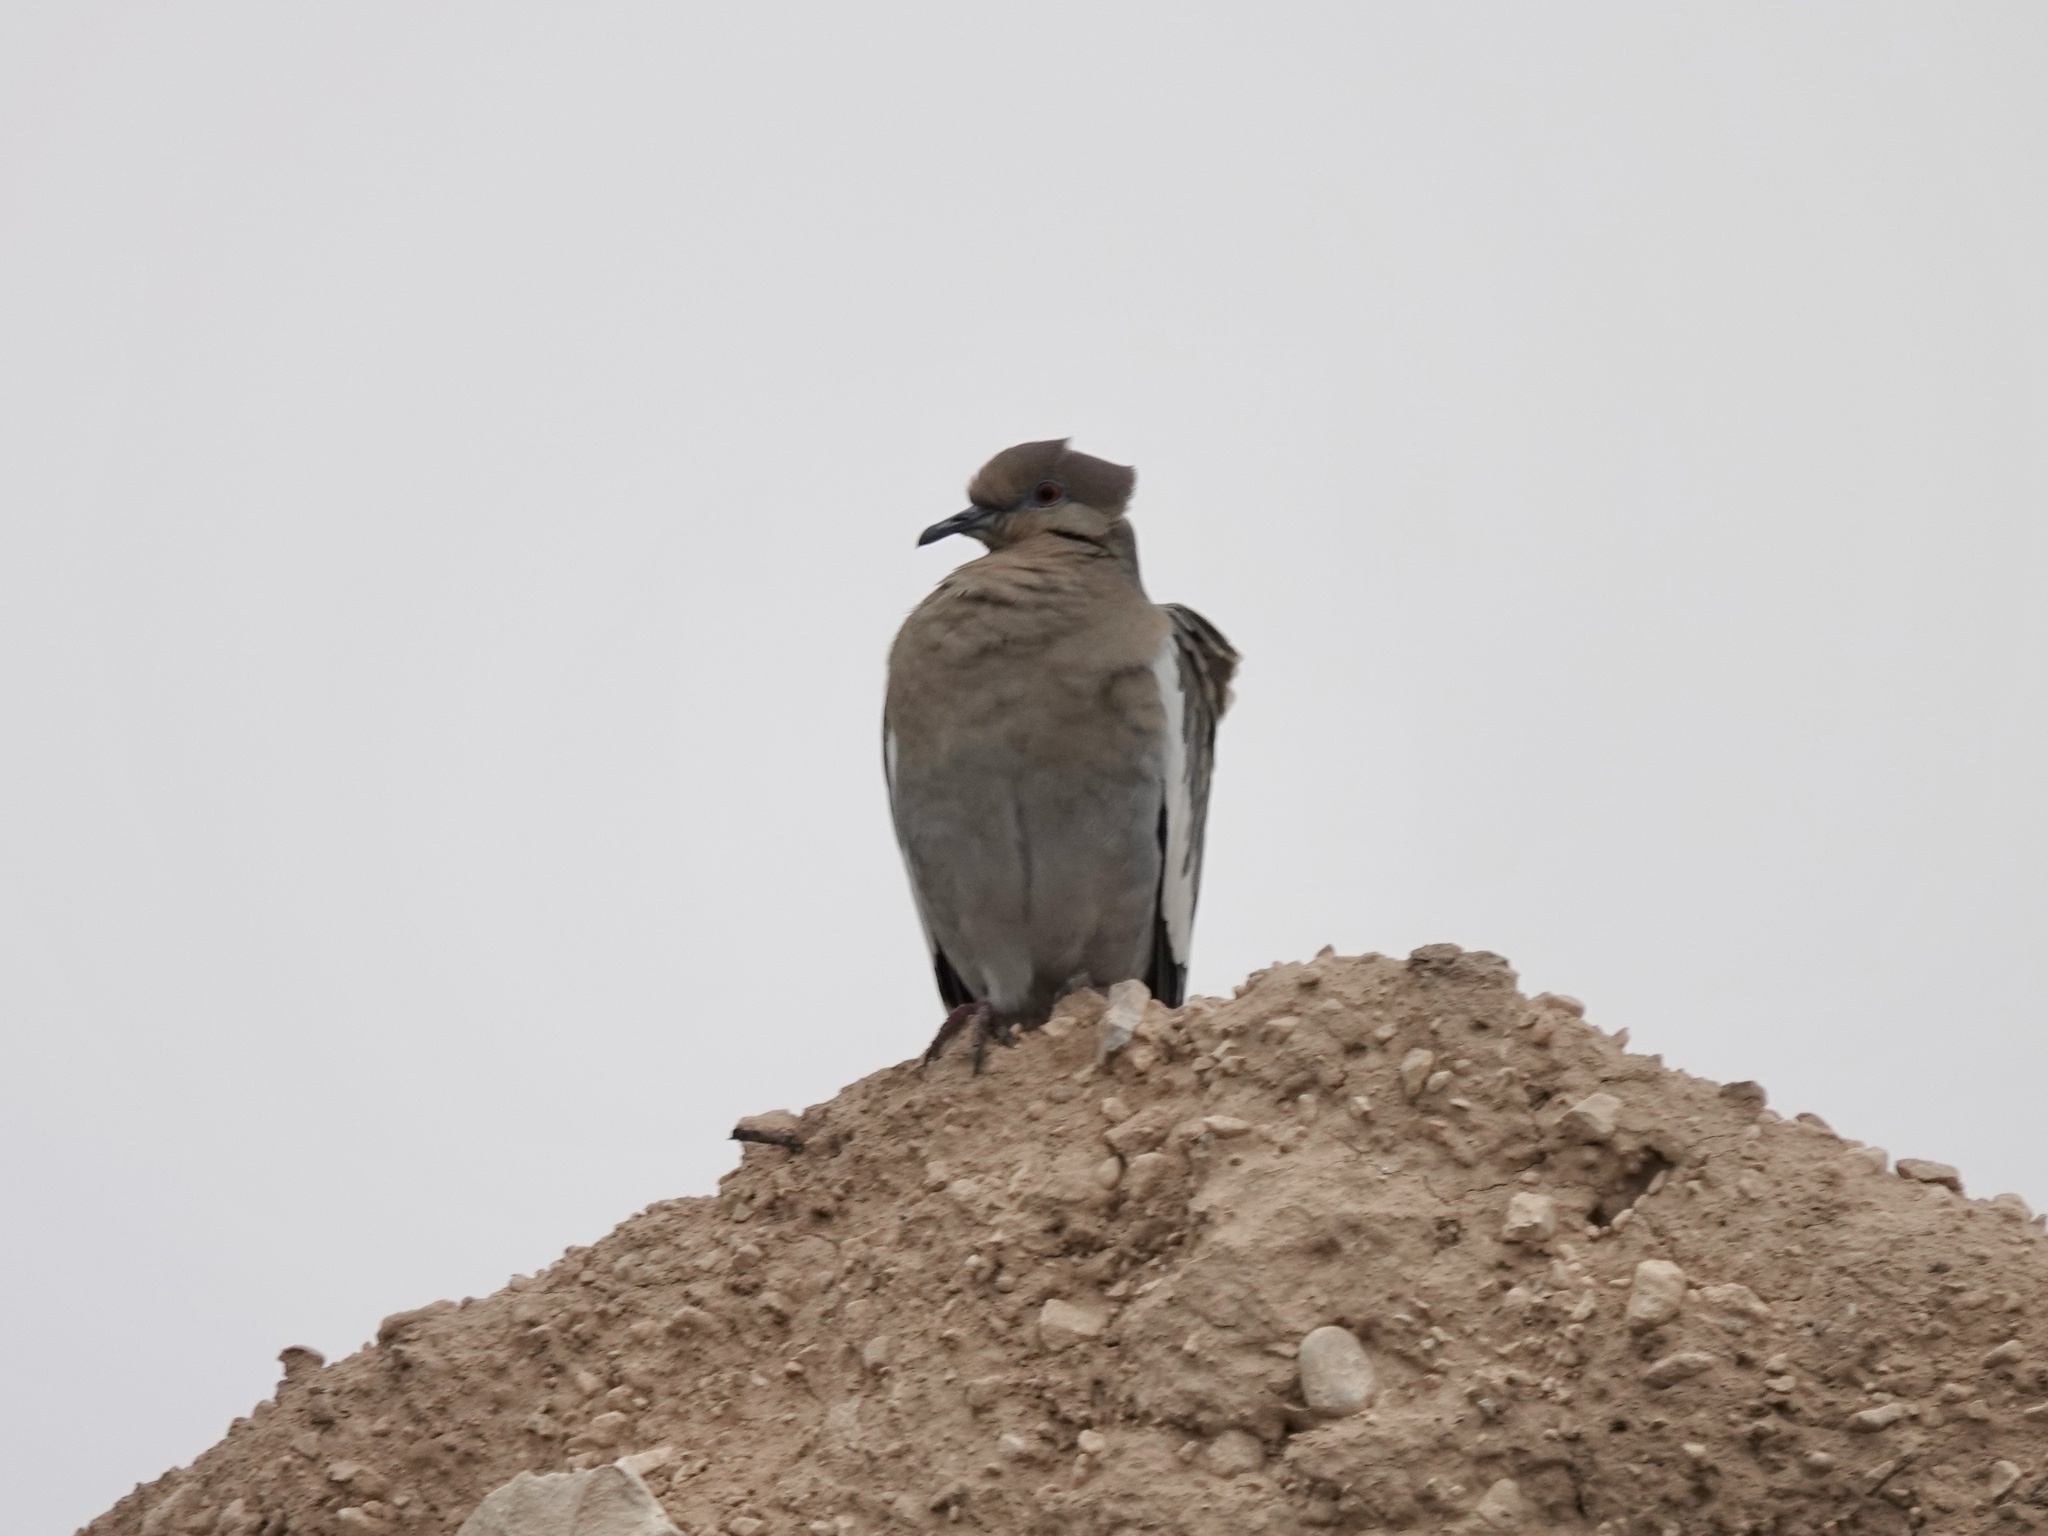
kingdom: Animalia
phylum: Chordata
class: Aves
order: Columbiformes
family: Columbidae
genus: Zenaida
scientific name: Zenaida asiatica
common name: White-winged dove
